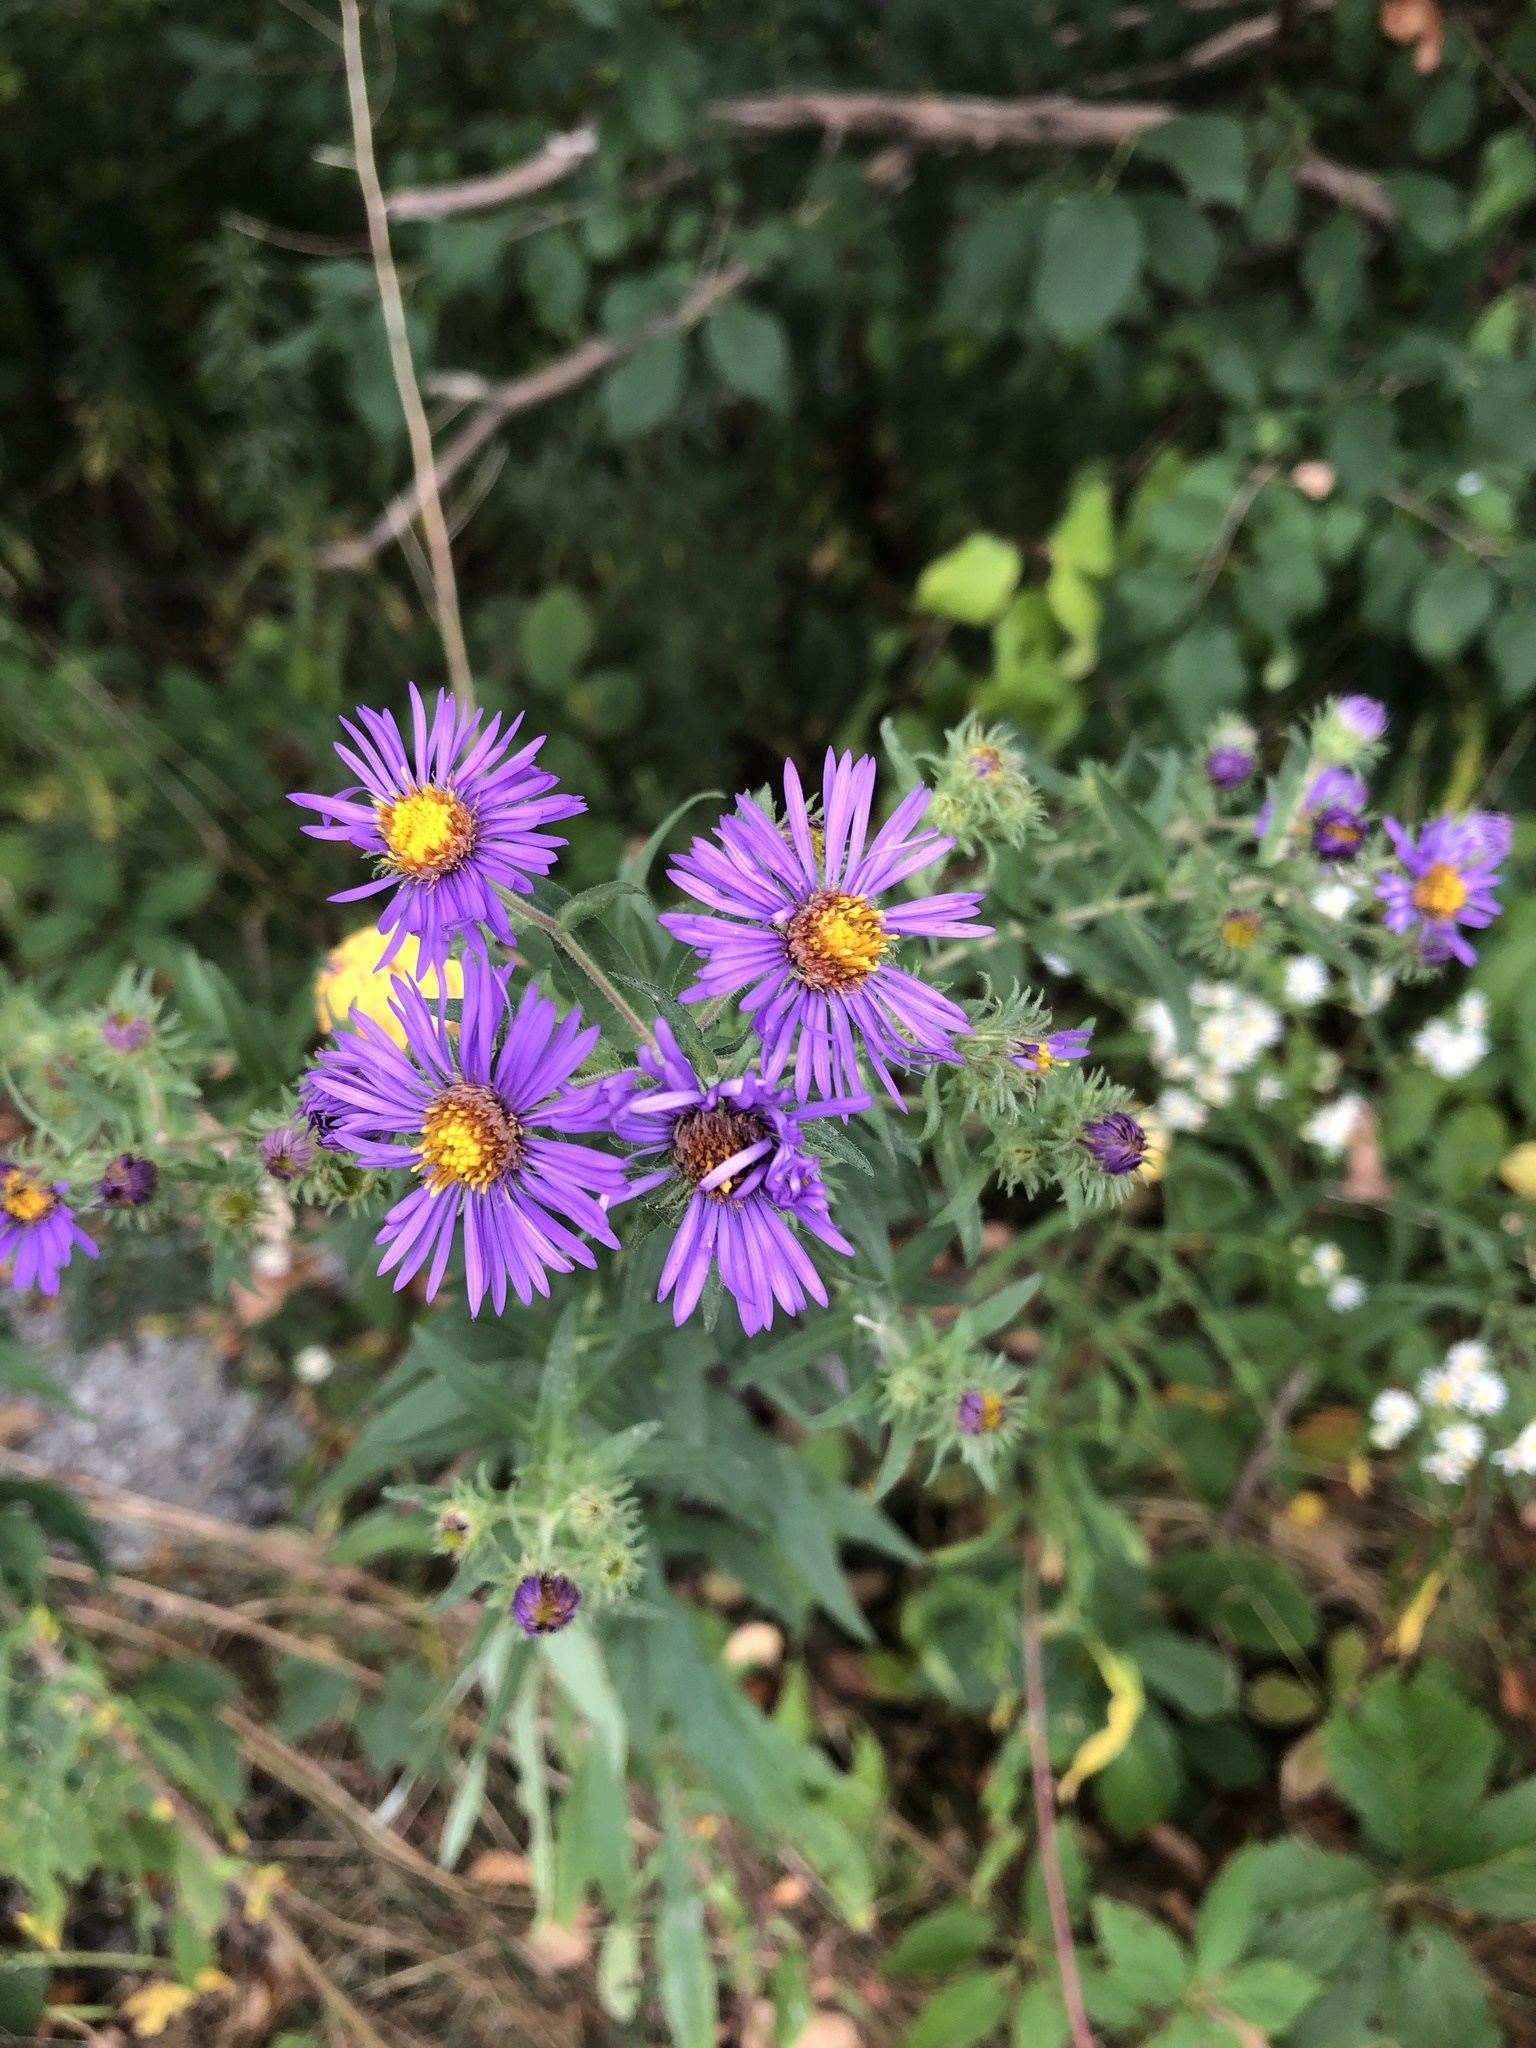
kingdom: Plantae
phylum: Tracheophyta
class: Magnoliopsida
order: Asterales
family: Asteraceae
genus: Symphyotrichum
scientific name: Symphyotrichum novae-angliae
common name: Michaelmas daisy
